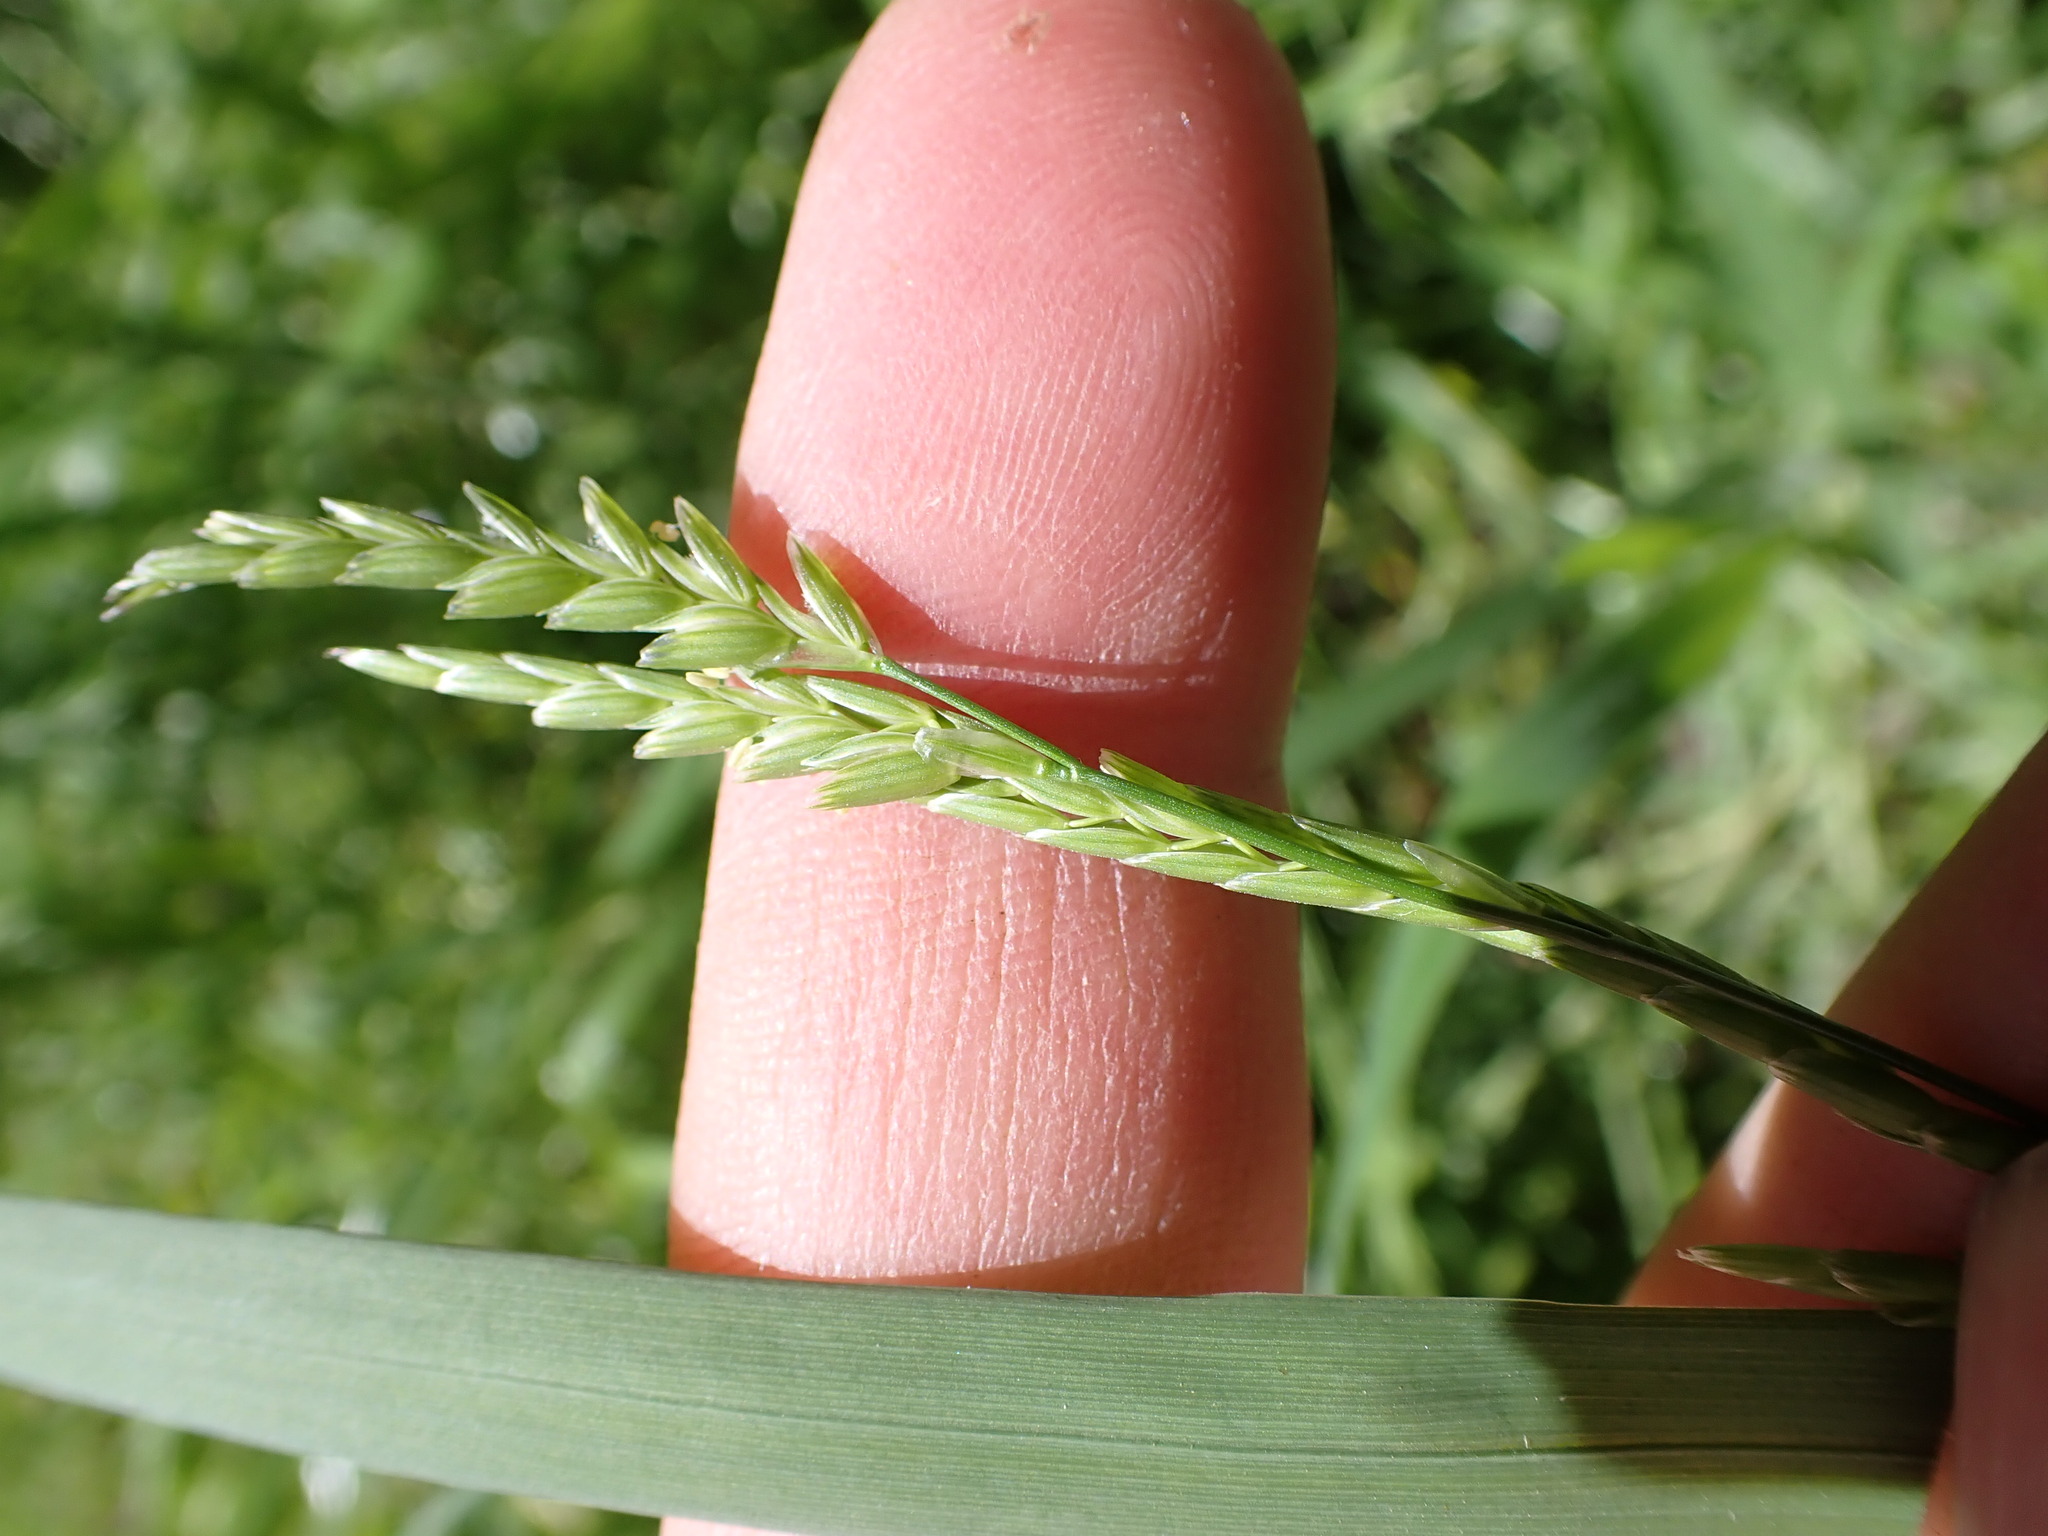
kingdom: Plantae
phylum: Tracheophyta
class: Liliopsida
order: Poales
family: Poaceae
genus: Glyceria
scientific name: Glyceria fluitans
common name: Floating sweet-grass
